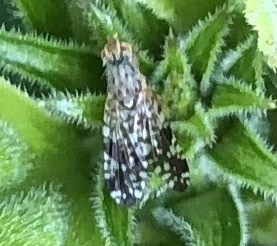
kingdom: Animalia
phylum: Arthropoda
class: Insecta
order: Diptera
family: Tephritidae
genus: Neotephritis
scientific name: Neotephritis finalis
